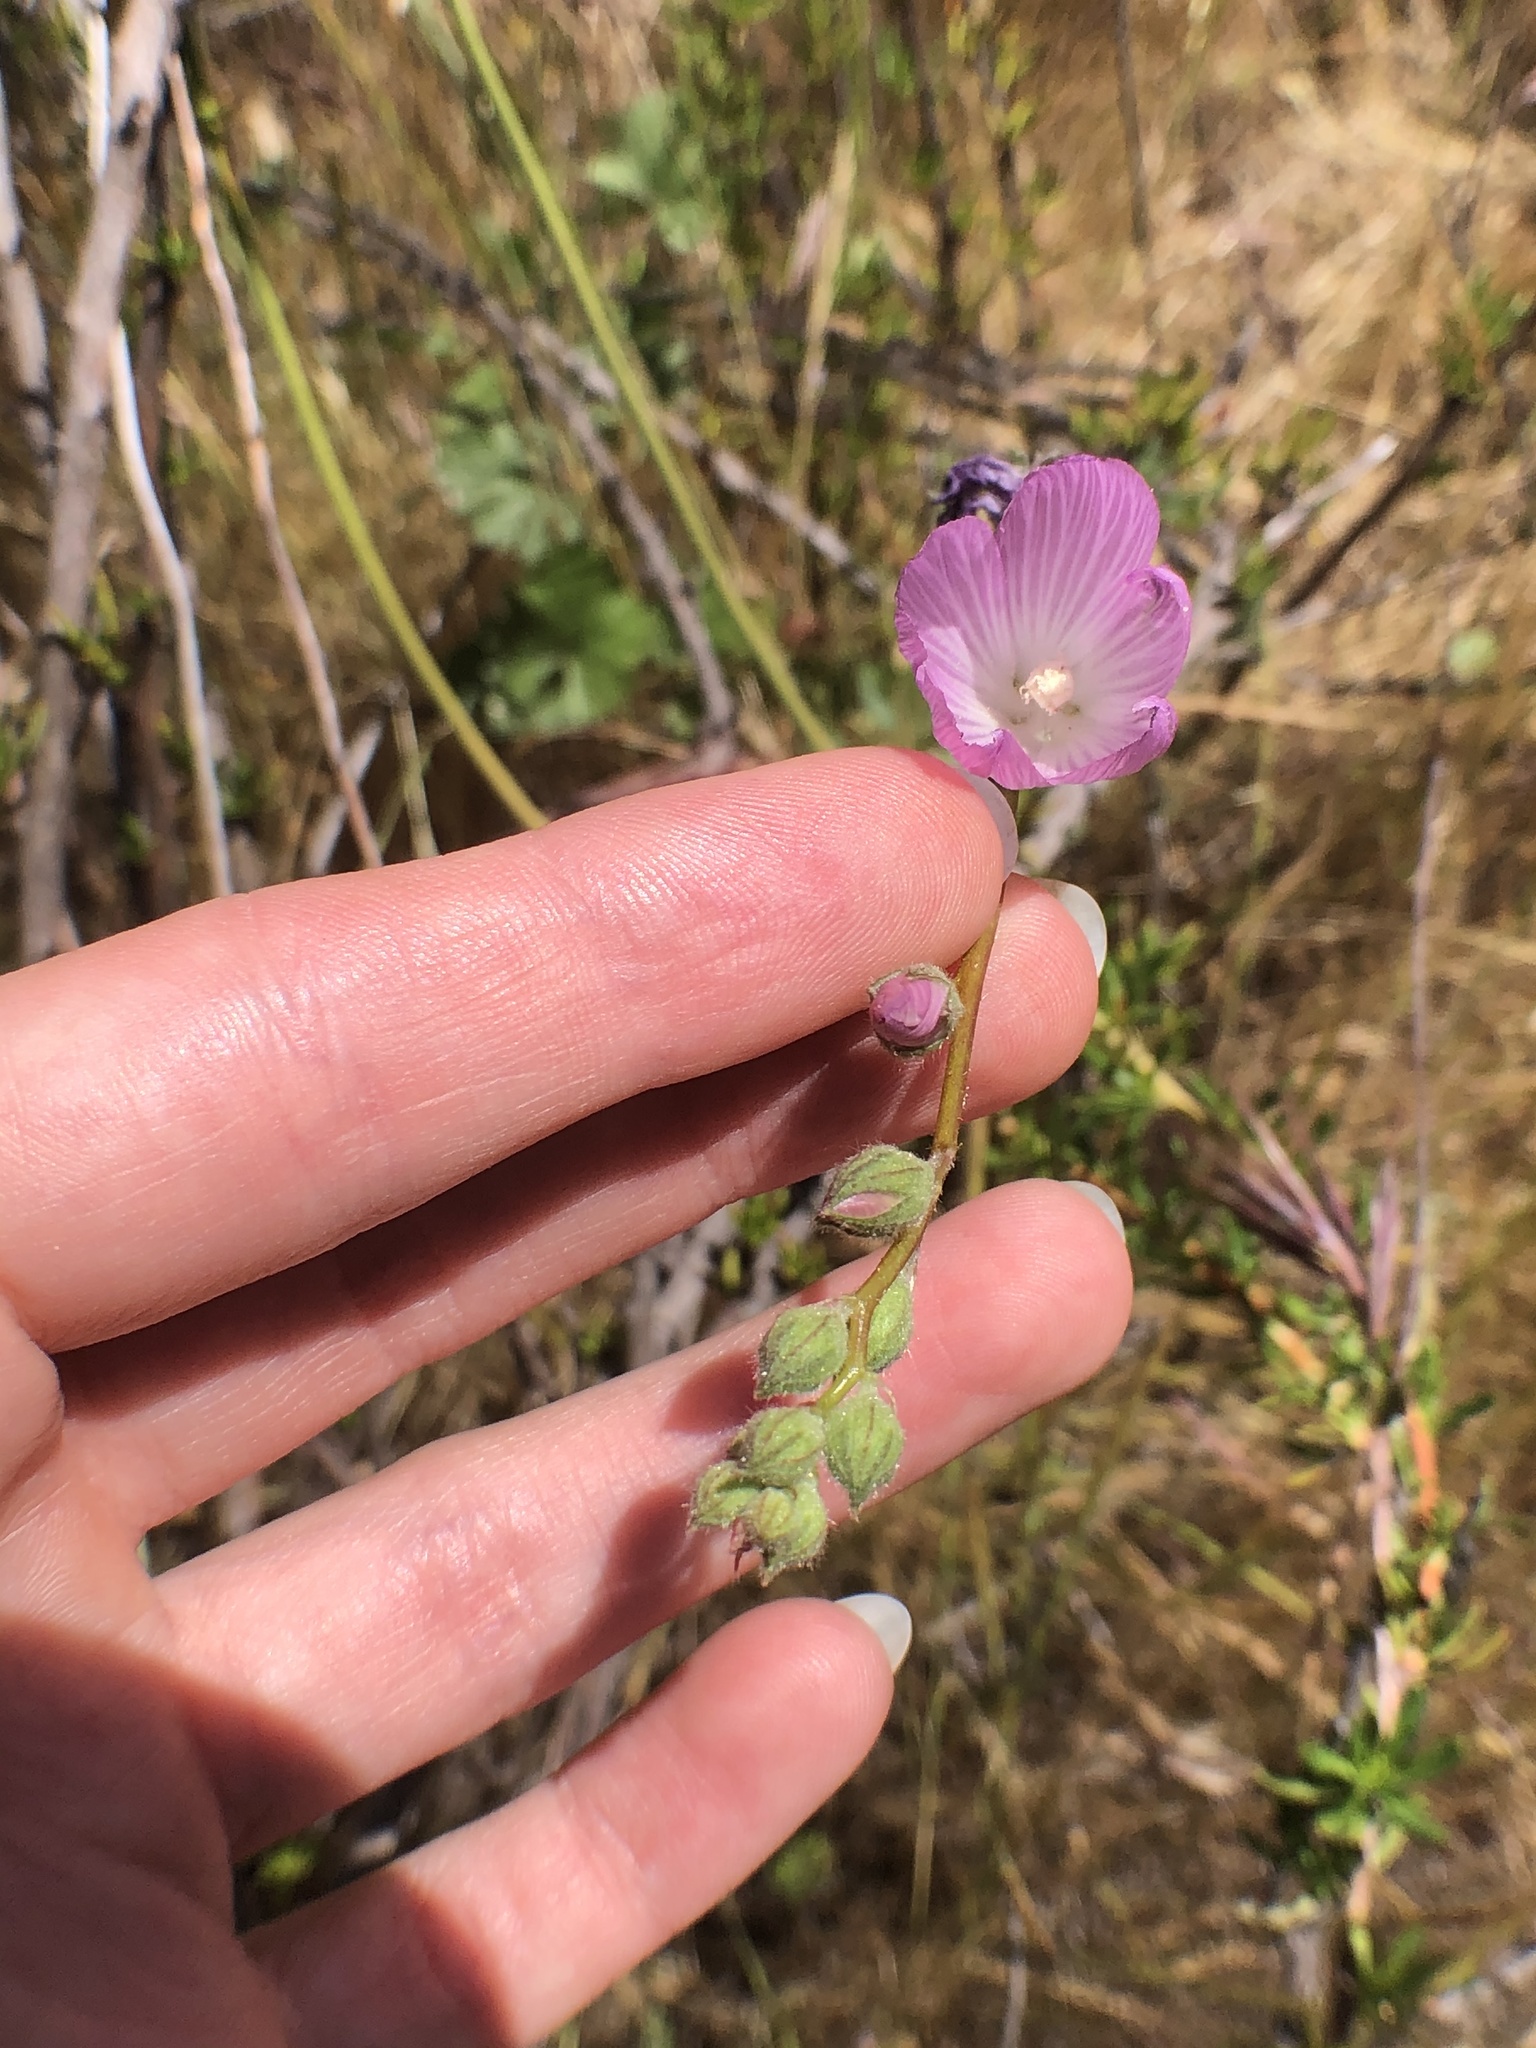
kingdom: Plantae
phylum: Tracheophyta
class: Magnoliopsida
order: Malvales
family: Malvaceae
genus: Sidalcea
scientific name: Sidalcea sparsifolia
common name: Southern checkerbloom
